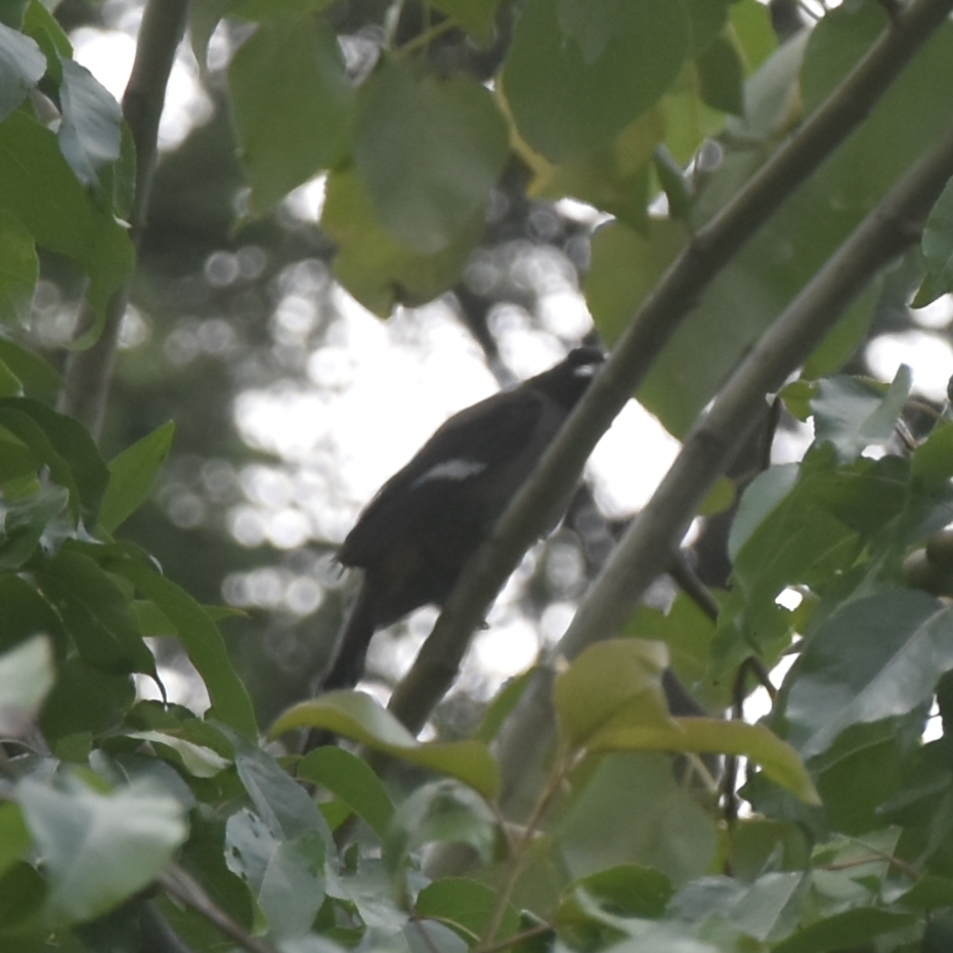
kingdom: Animalia
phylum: Chordata
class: Aves
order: Passeriformes
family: Corvidae
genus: Dendrocitta
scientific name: Dendrocitta formosae
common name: Grey treepie
